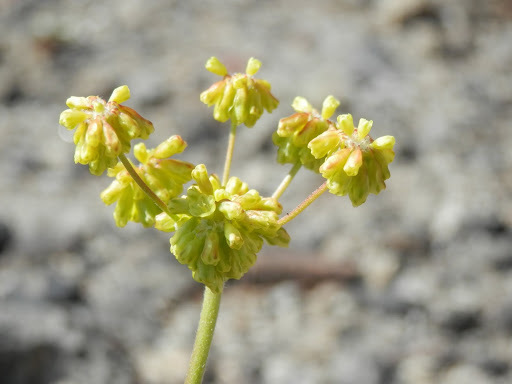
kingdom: Plantae
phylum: Tracheophyta
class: Magnoliopsida
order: Caryophyllales
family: Polygonaceae
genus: Eriogonum
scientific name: Eriogonum umbellatum
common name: Sulfur-buckwheat
